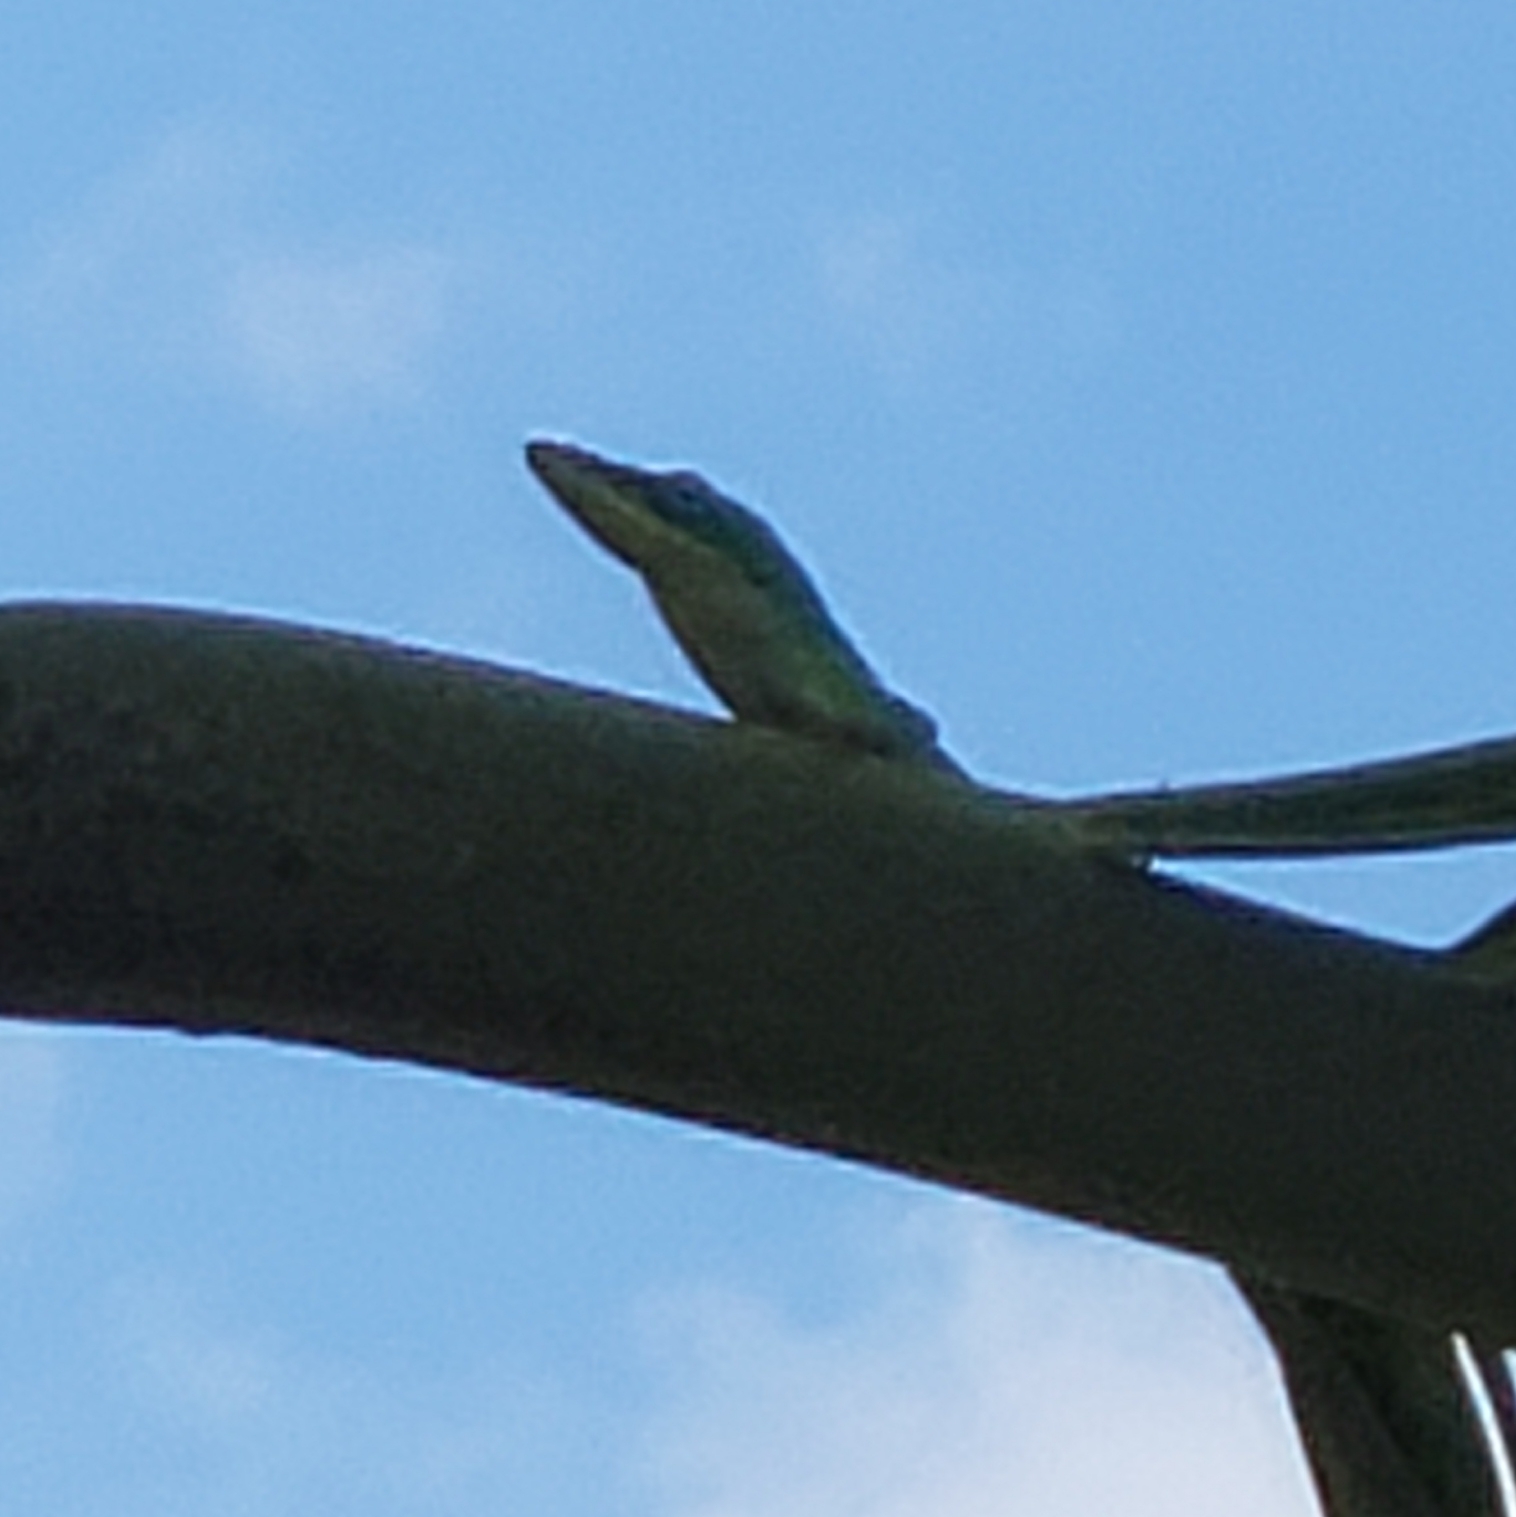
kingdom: Animalia
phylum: Chordata
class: Squamata
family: Dactyloidae
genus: Anolis
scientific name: Anolis carolinensis
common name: Green anole
